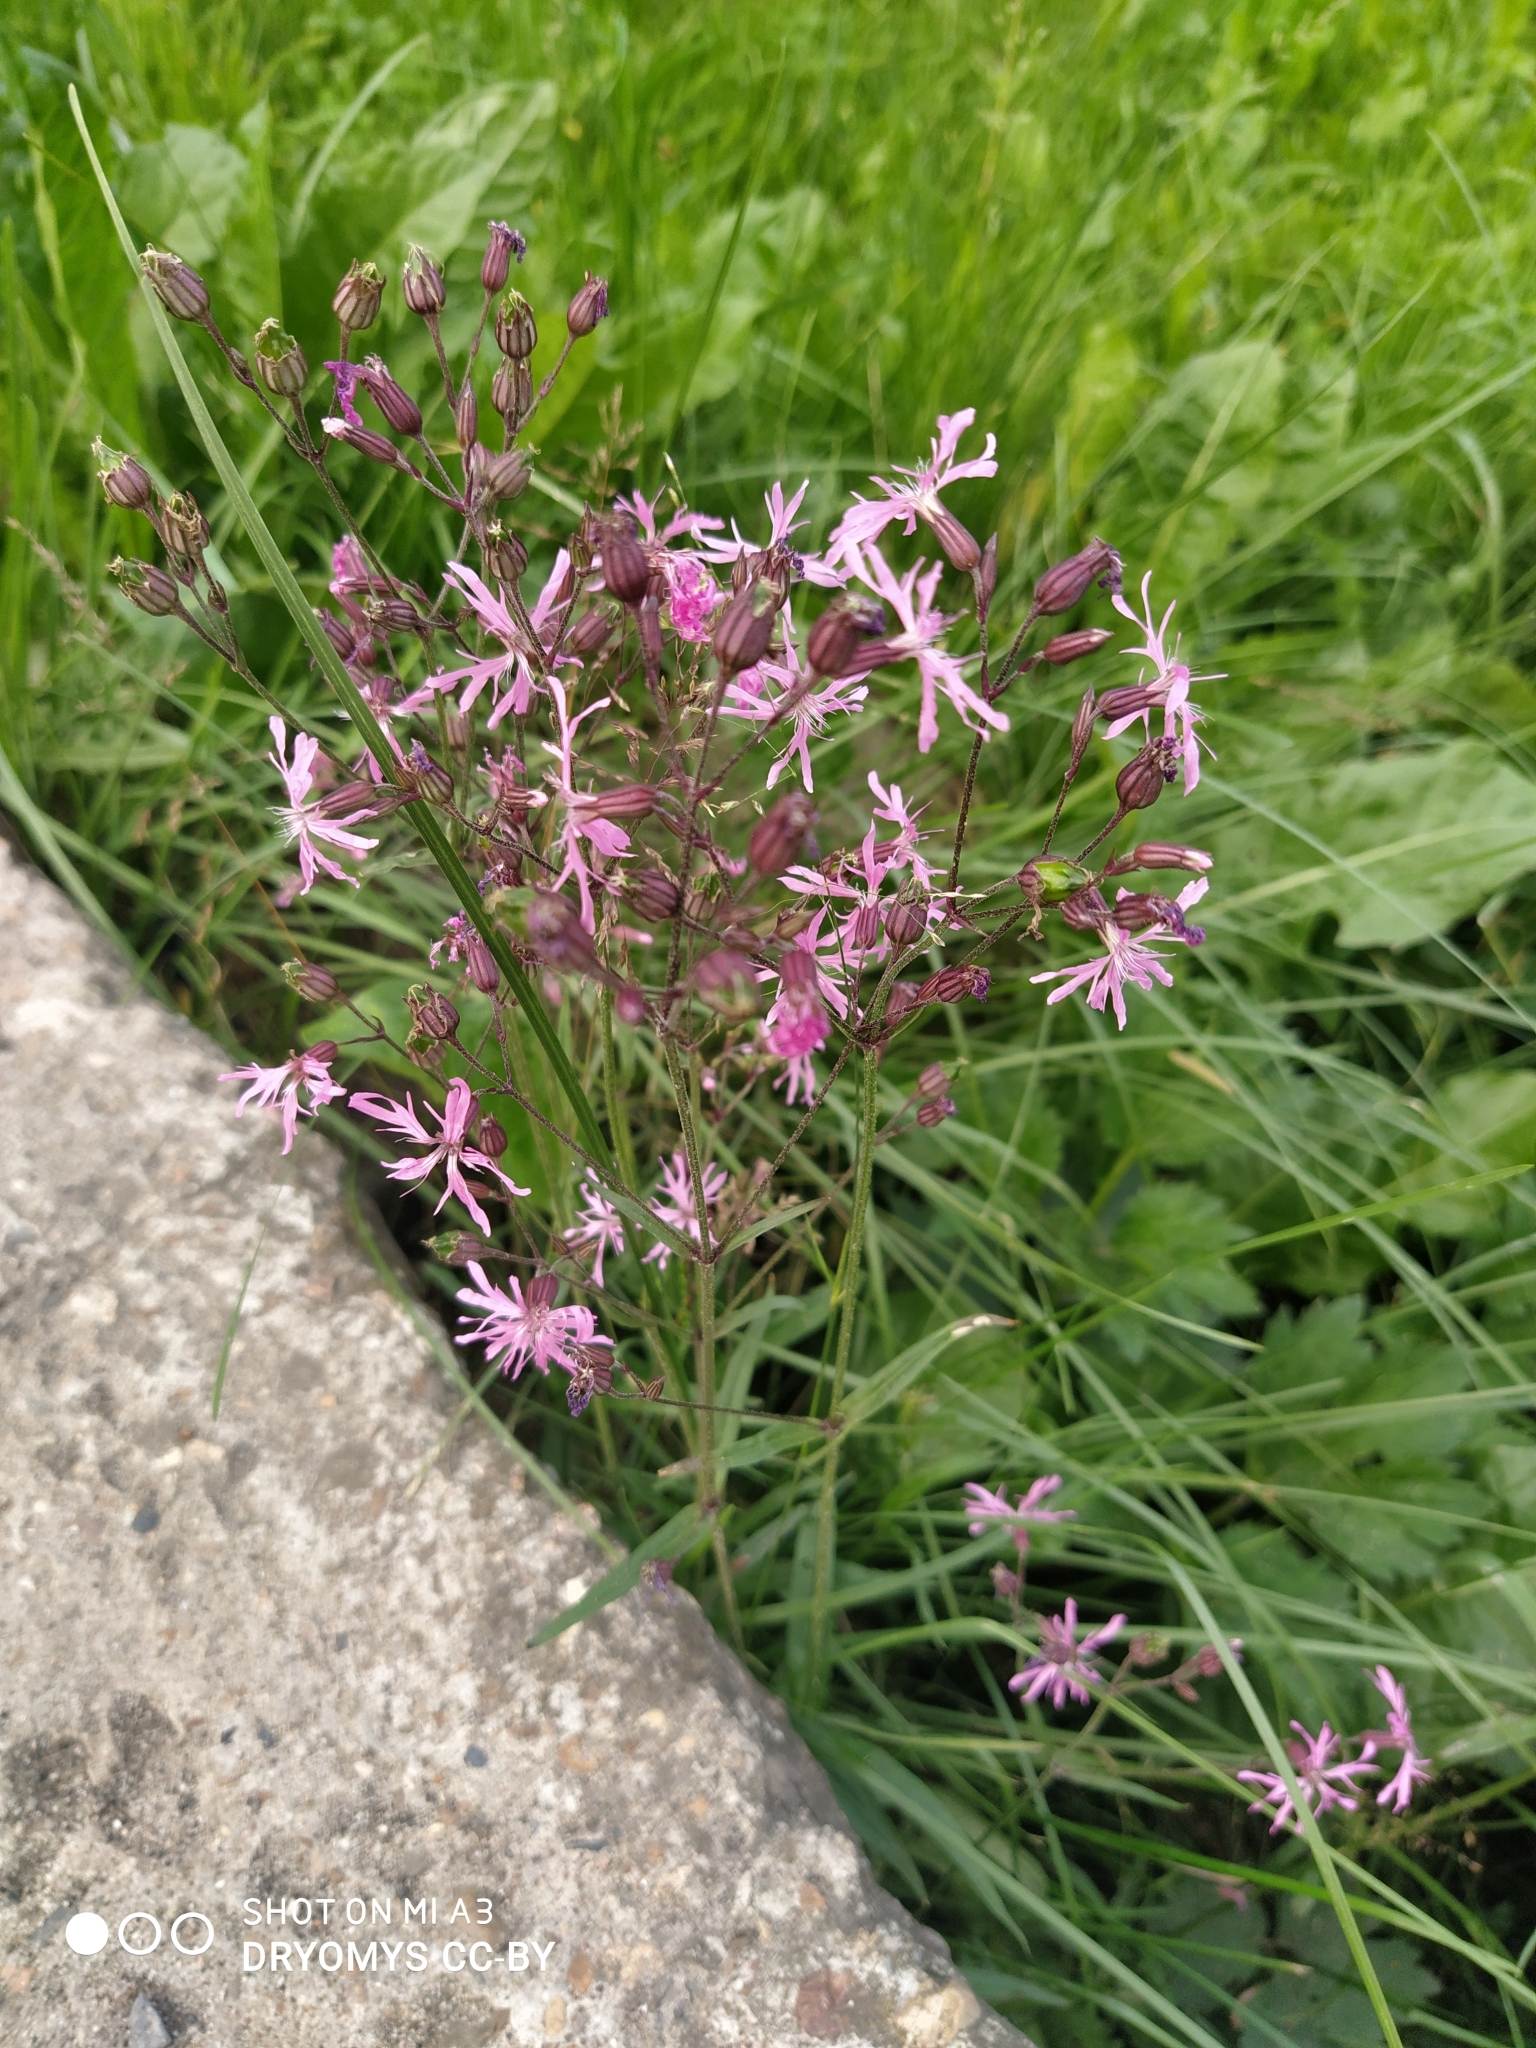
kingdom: Plantae
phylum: Tracheophyta
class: Magnoliopsida
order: Caryophyllales
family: Caryophyllaceae
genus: Silene
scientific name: Silene flos-cuculi
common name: Ragged-robin
